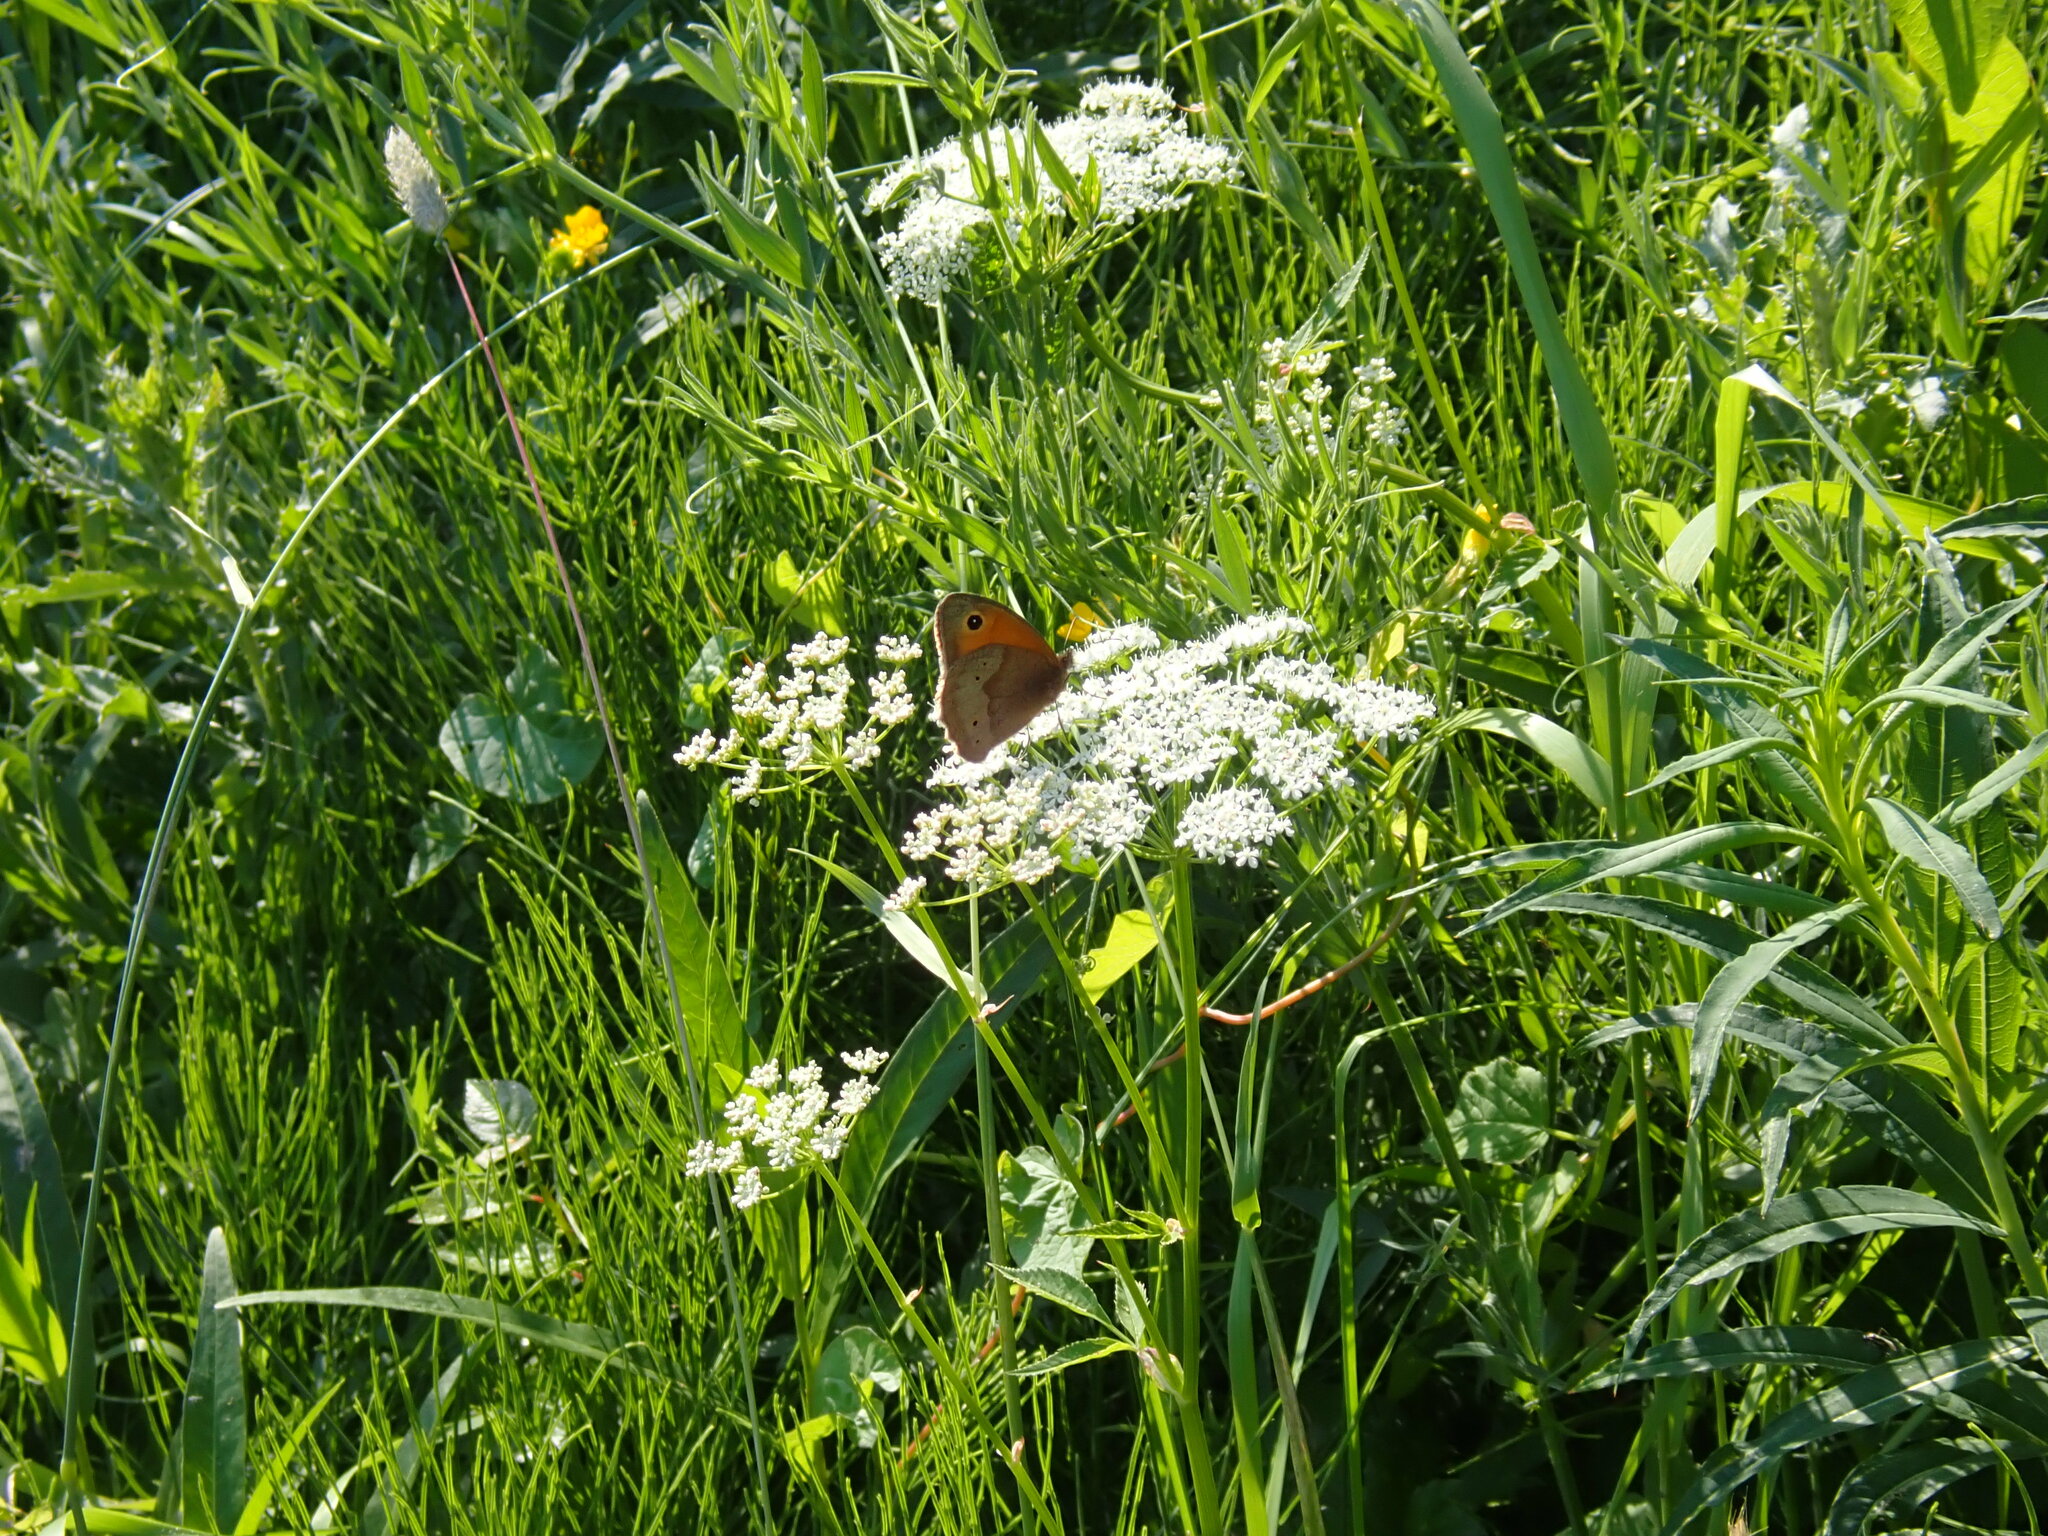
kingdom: Animalia
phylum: Arthropoda
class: Insecta
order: Lepidoptera
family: Nymphalidae
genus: Maniola
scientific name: Maniola jurtina
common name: Meadow brown
